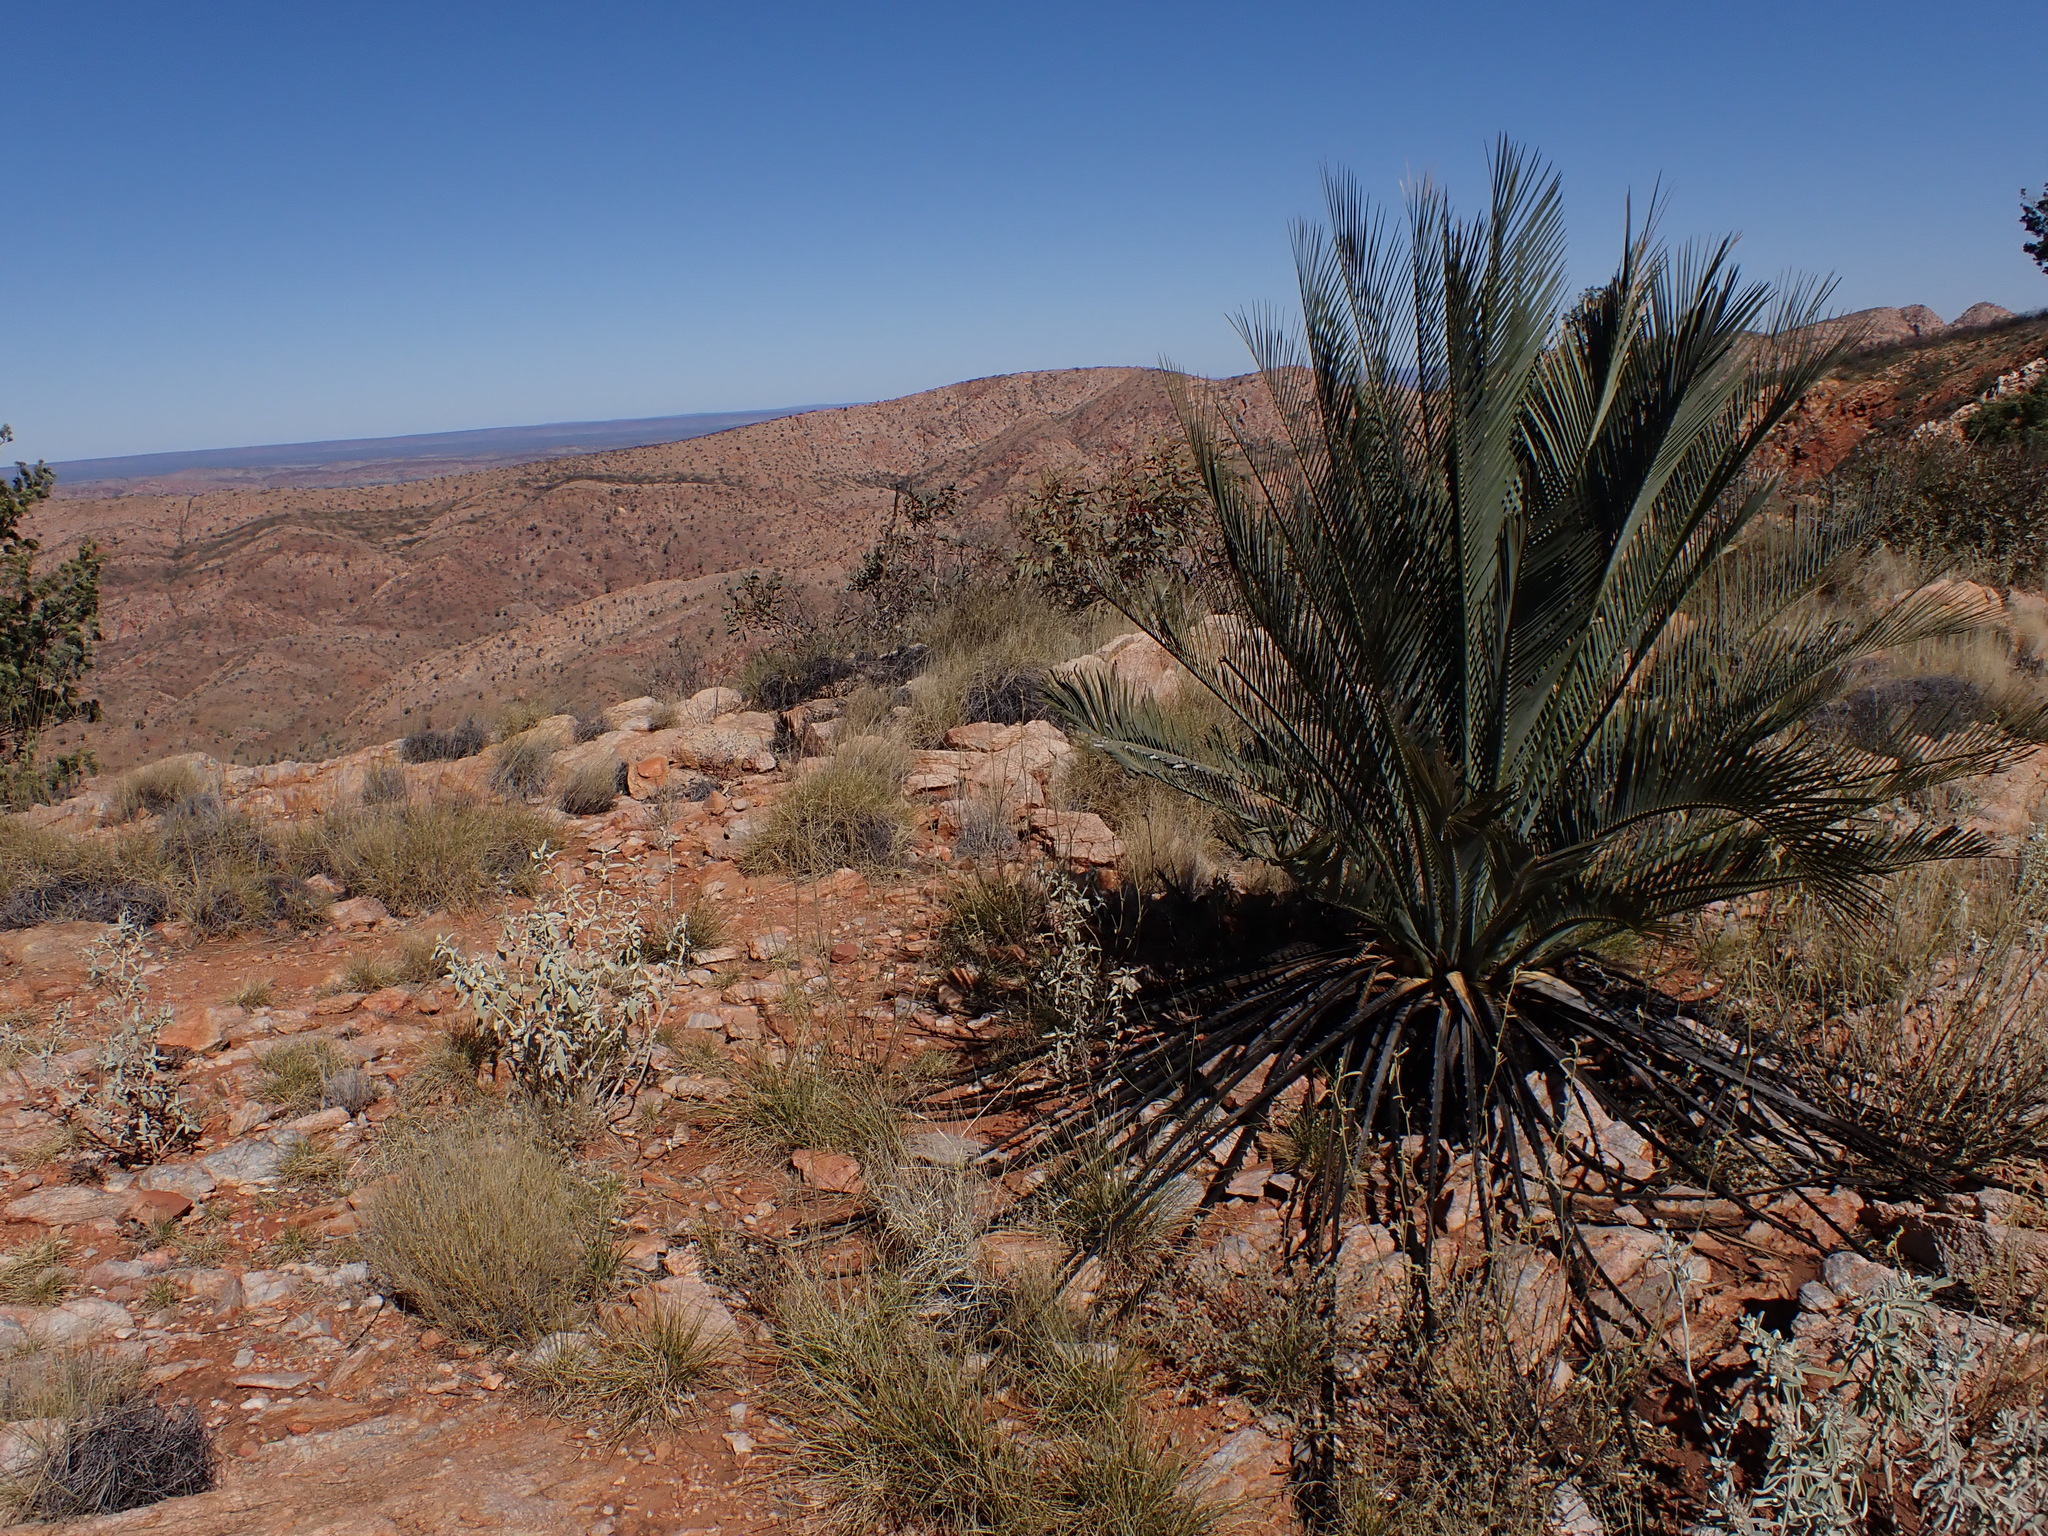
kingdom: Plantae
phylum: Tracheophyta
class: Cycadopsida
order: Cycadales
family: Zamiaceae
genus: Macrozamia
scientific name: Macrozamia macdonnellii
